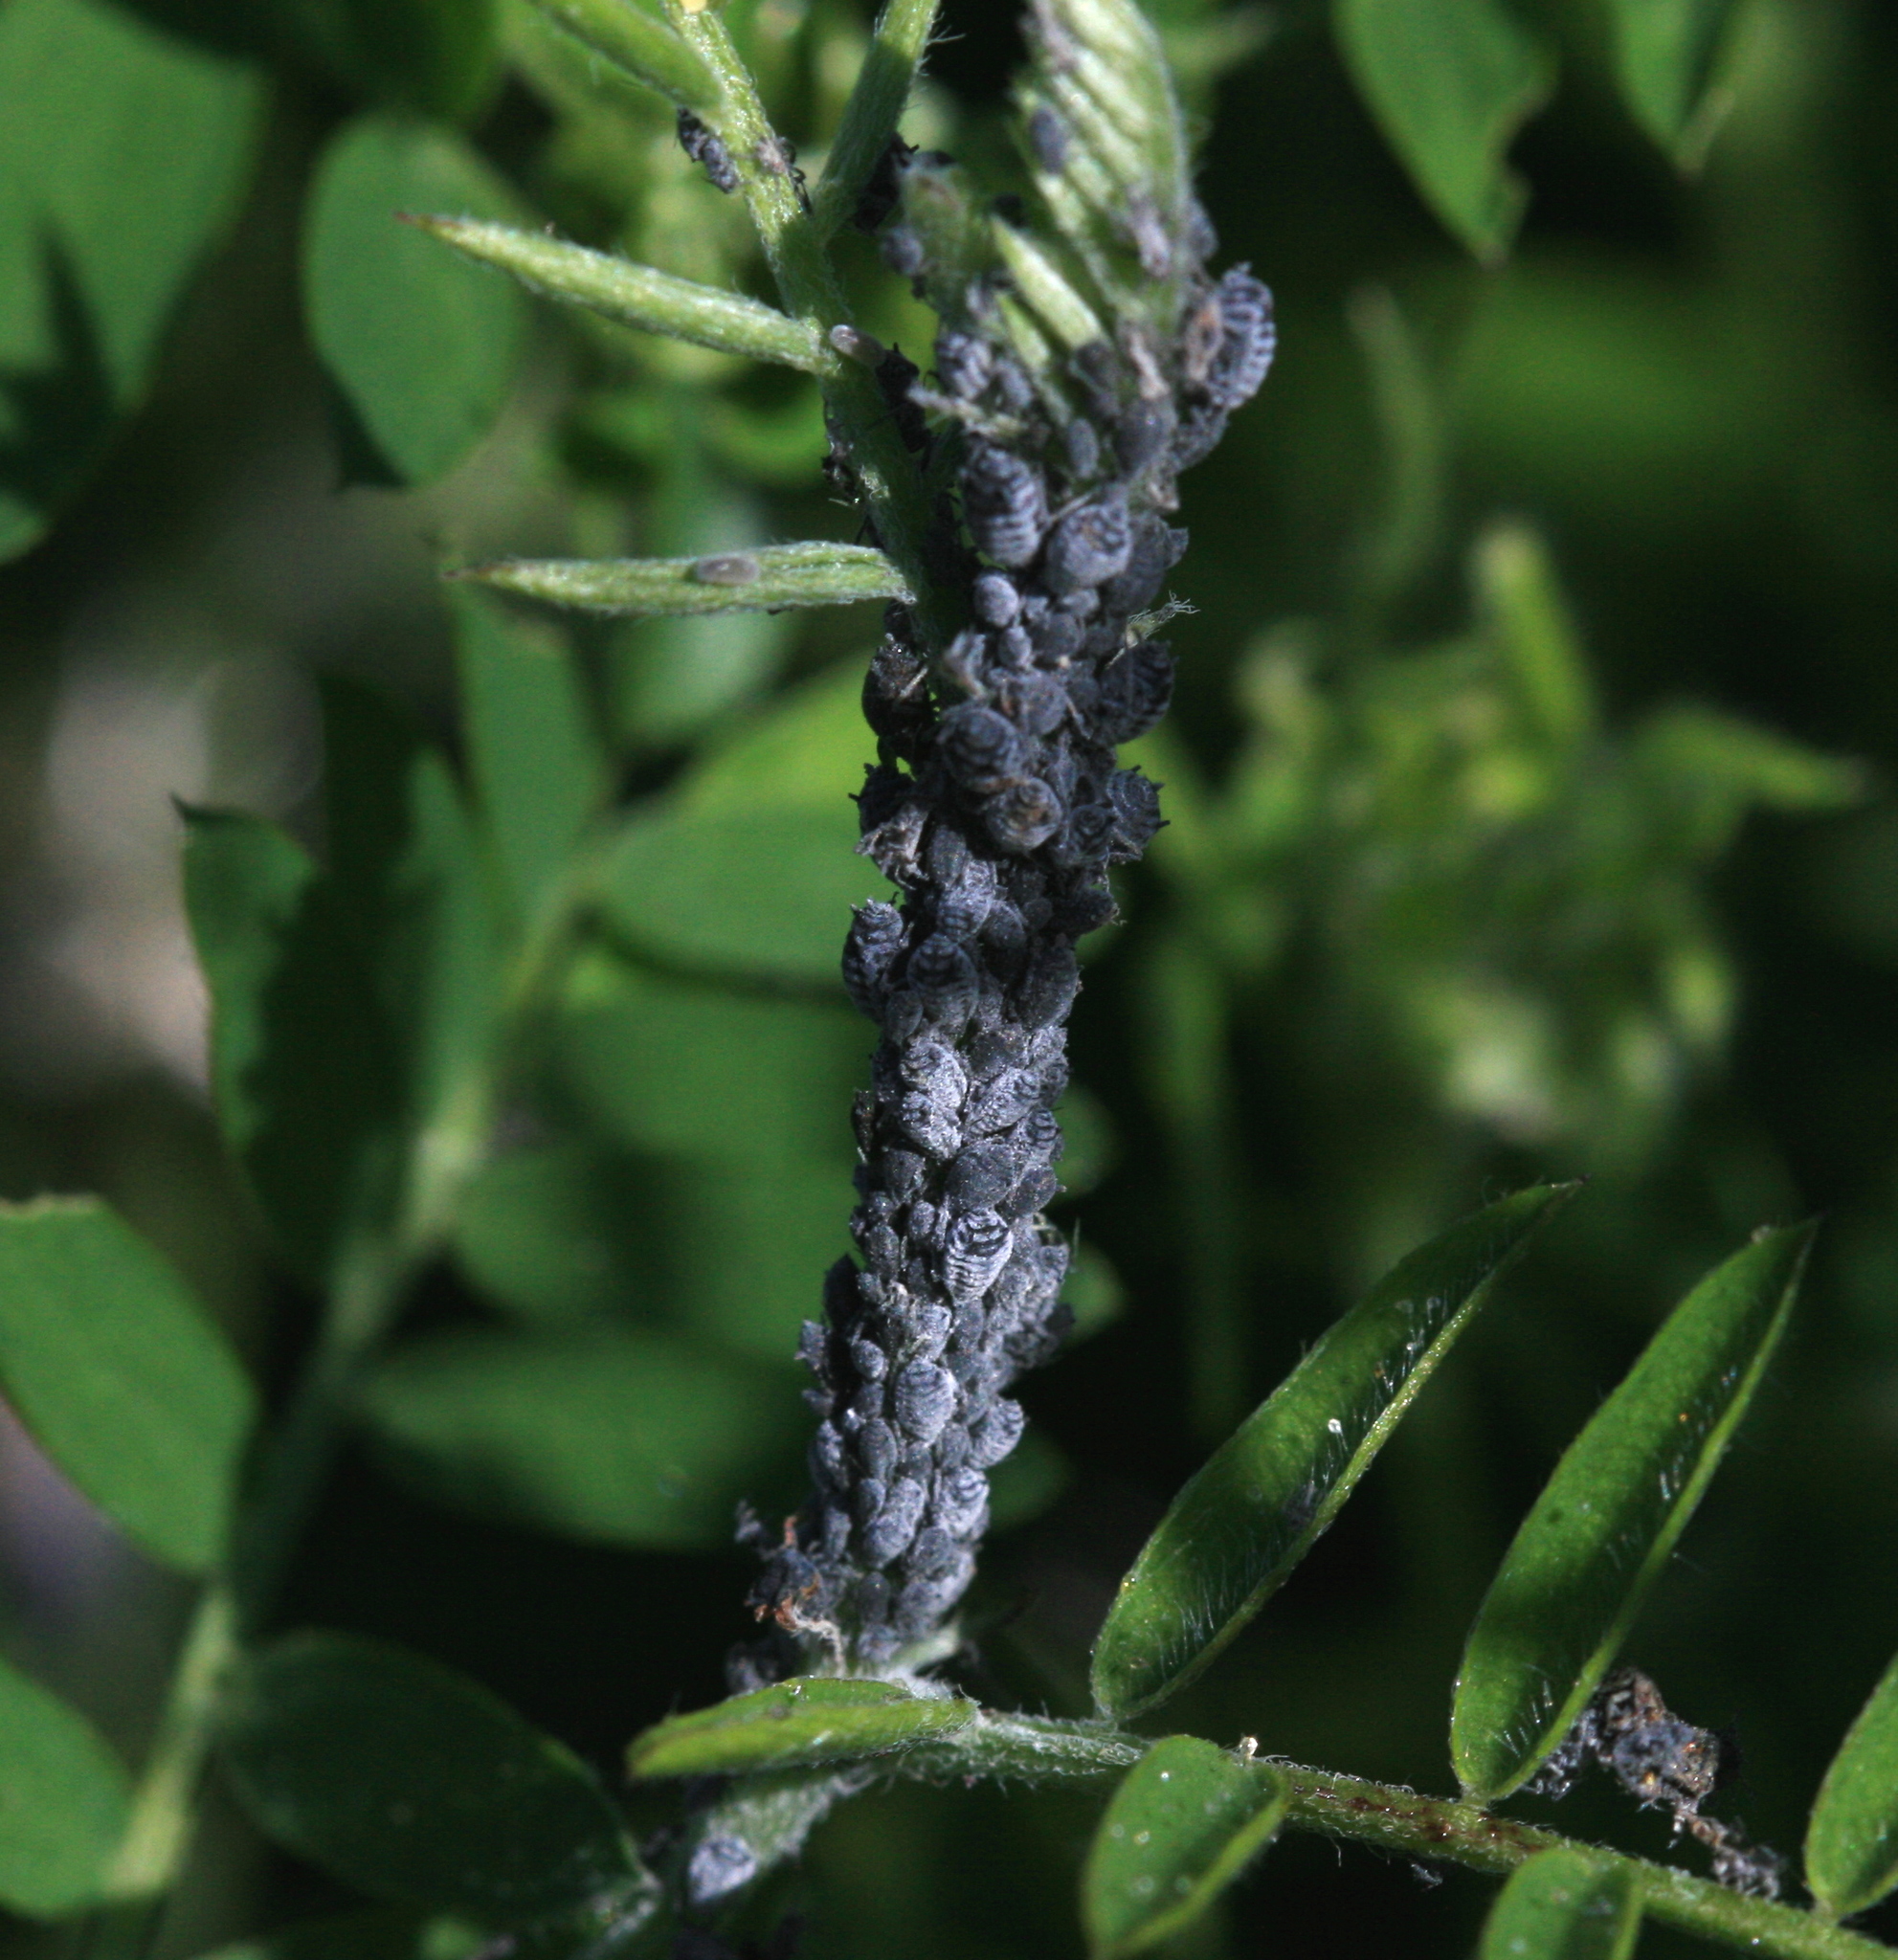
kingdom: Animalia
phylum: Arthropoda
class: Insecta
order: Hemiptera
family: Aphididae
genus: Aphis
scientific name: Aphis craccae
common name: Aphid
